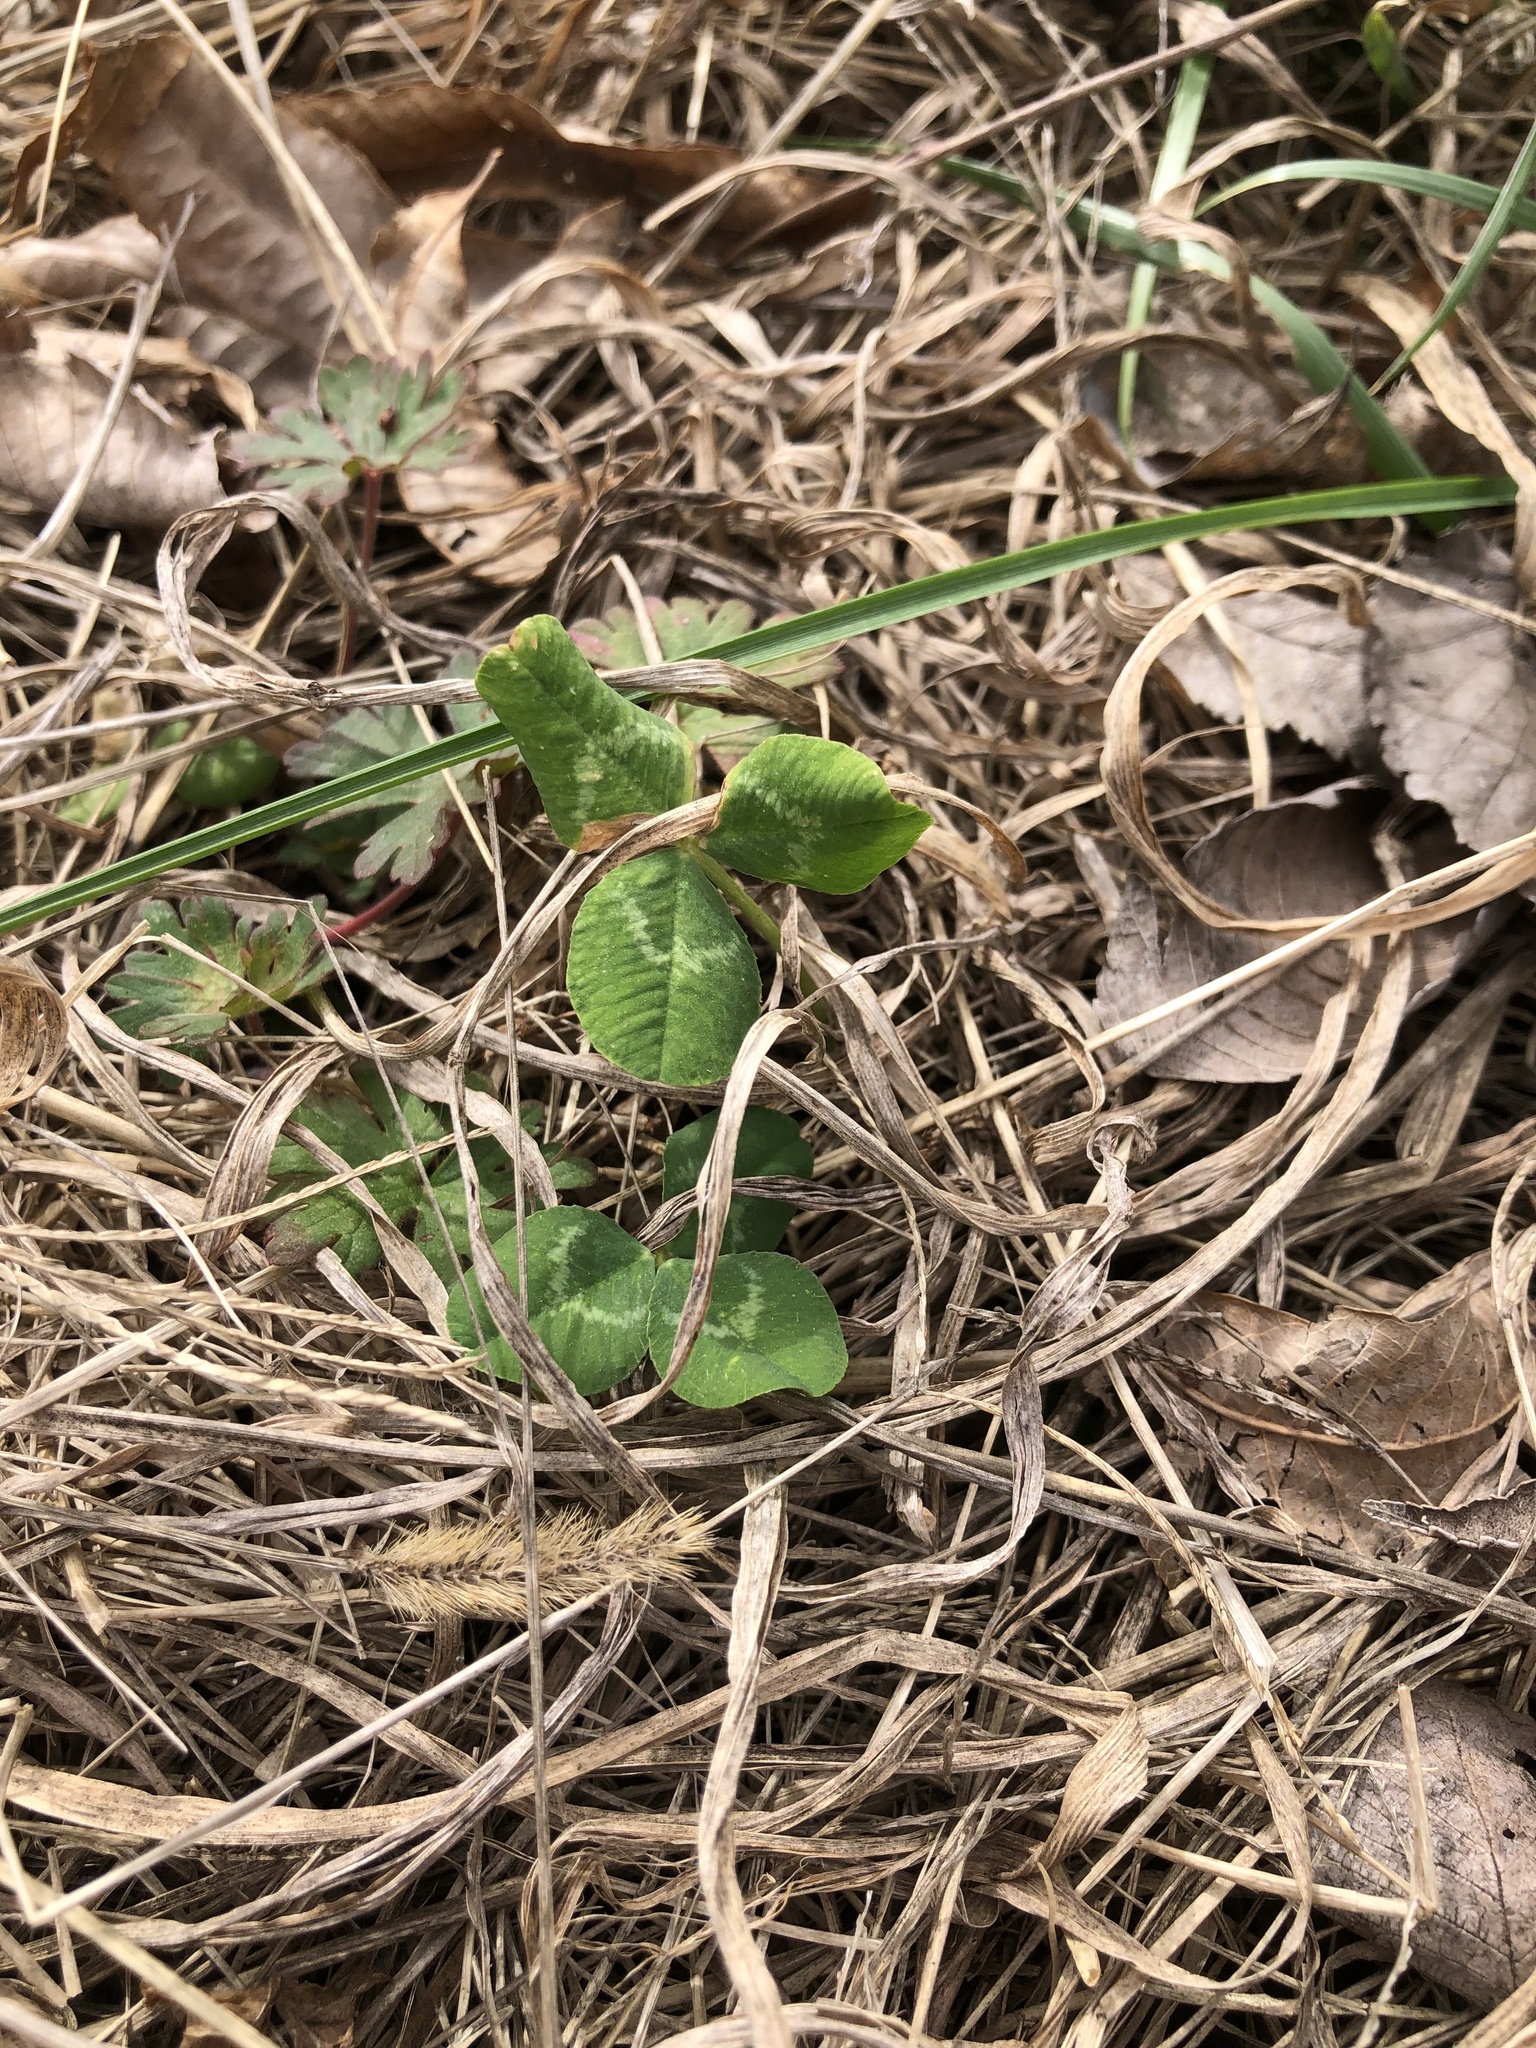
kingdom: Plantae
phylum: Tracheophyta
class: Magnoliopsida
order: Fabales
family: Fabaceae
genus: Trifolium
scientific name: Trifolium repens
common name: White clover
